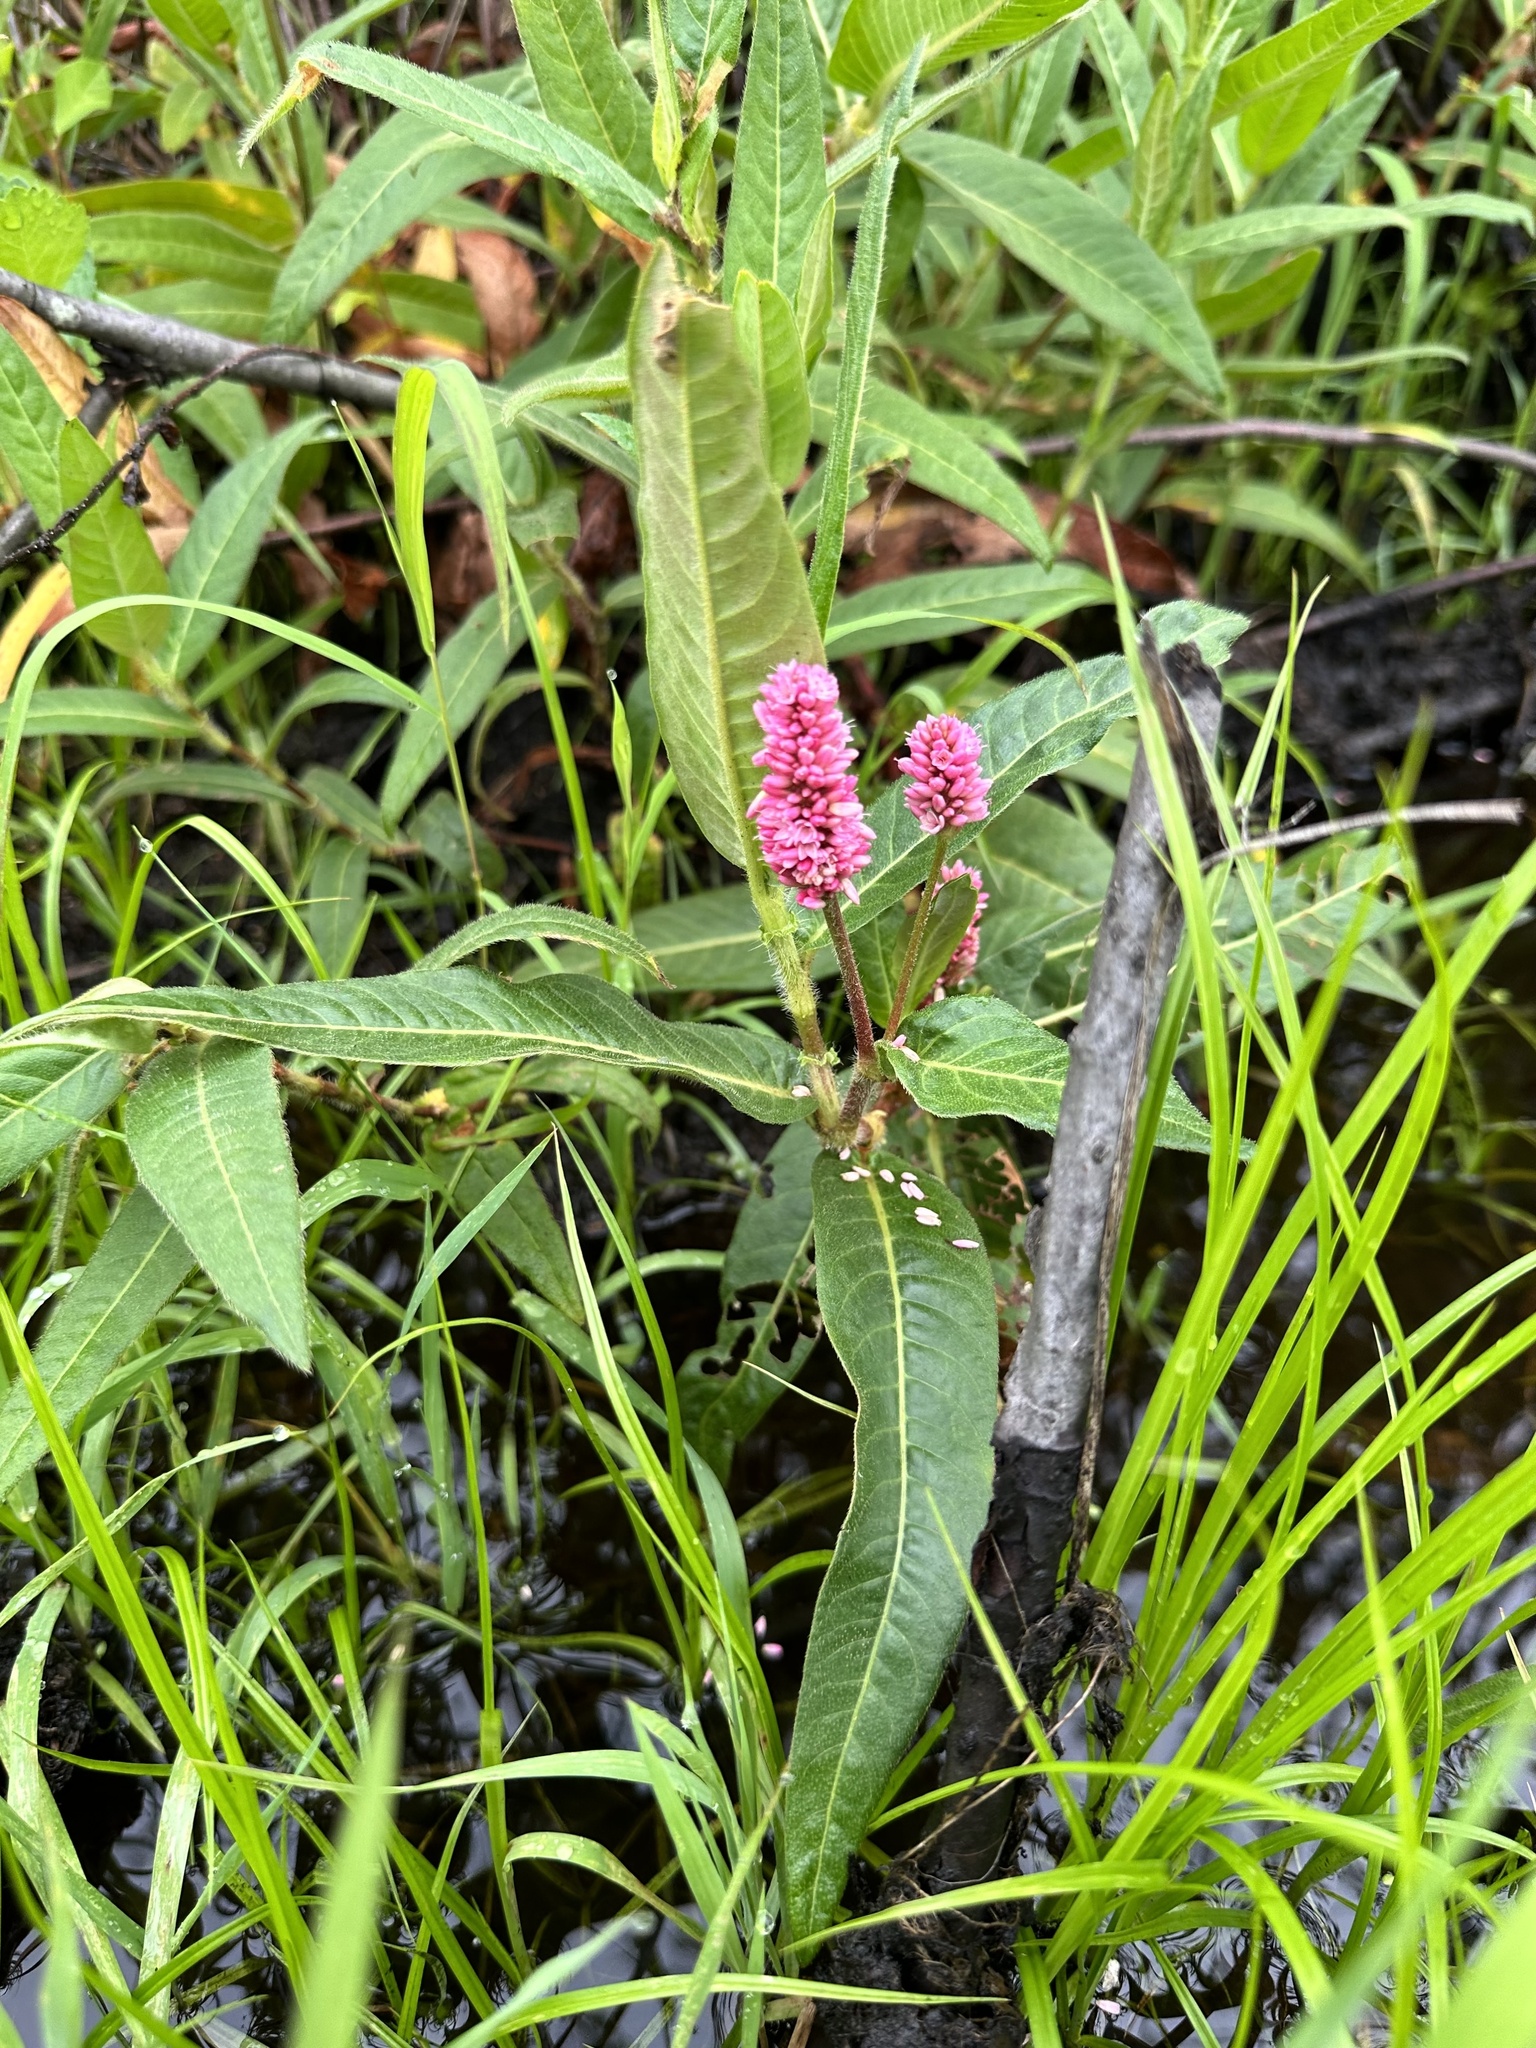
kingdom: Plantae
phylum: Tracheophyta
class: Magnoliopsida
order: Caryophyllales
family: Polygonaceae
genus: Persicaria
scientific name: Persicaria amphibia
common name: Amphibious bistort
